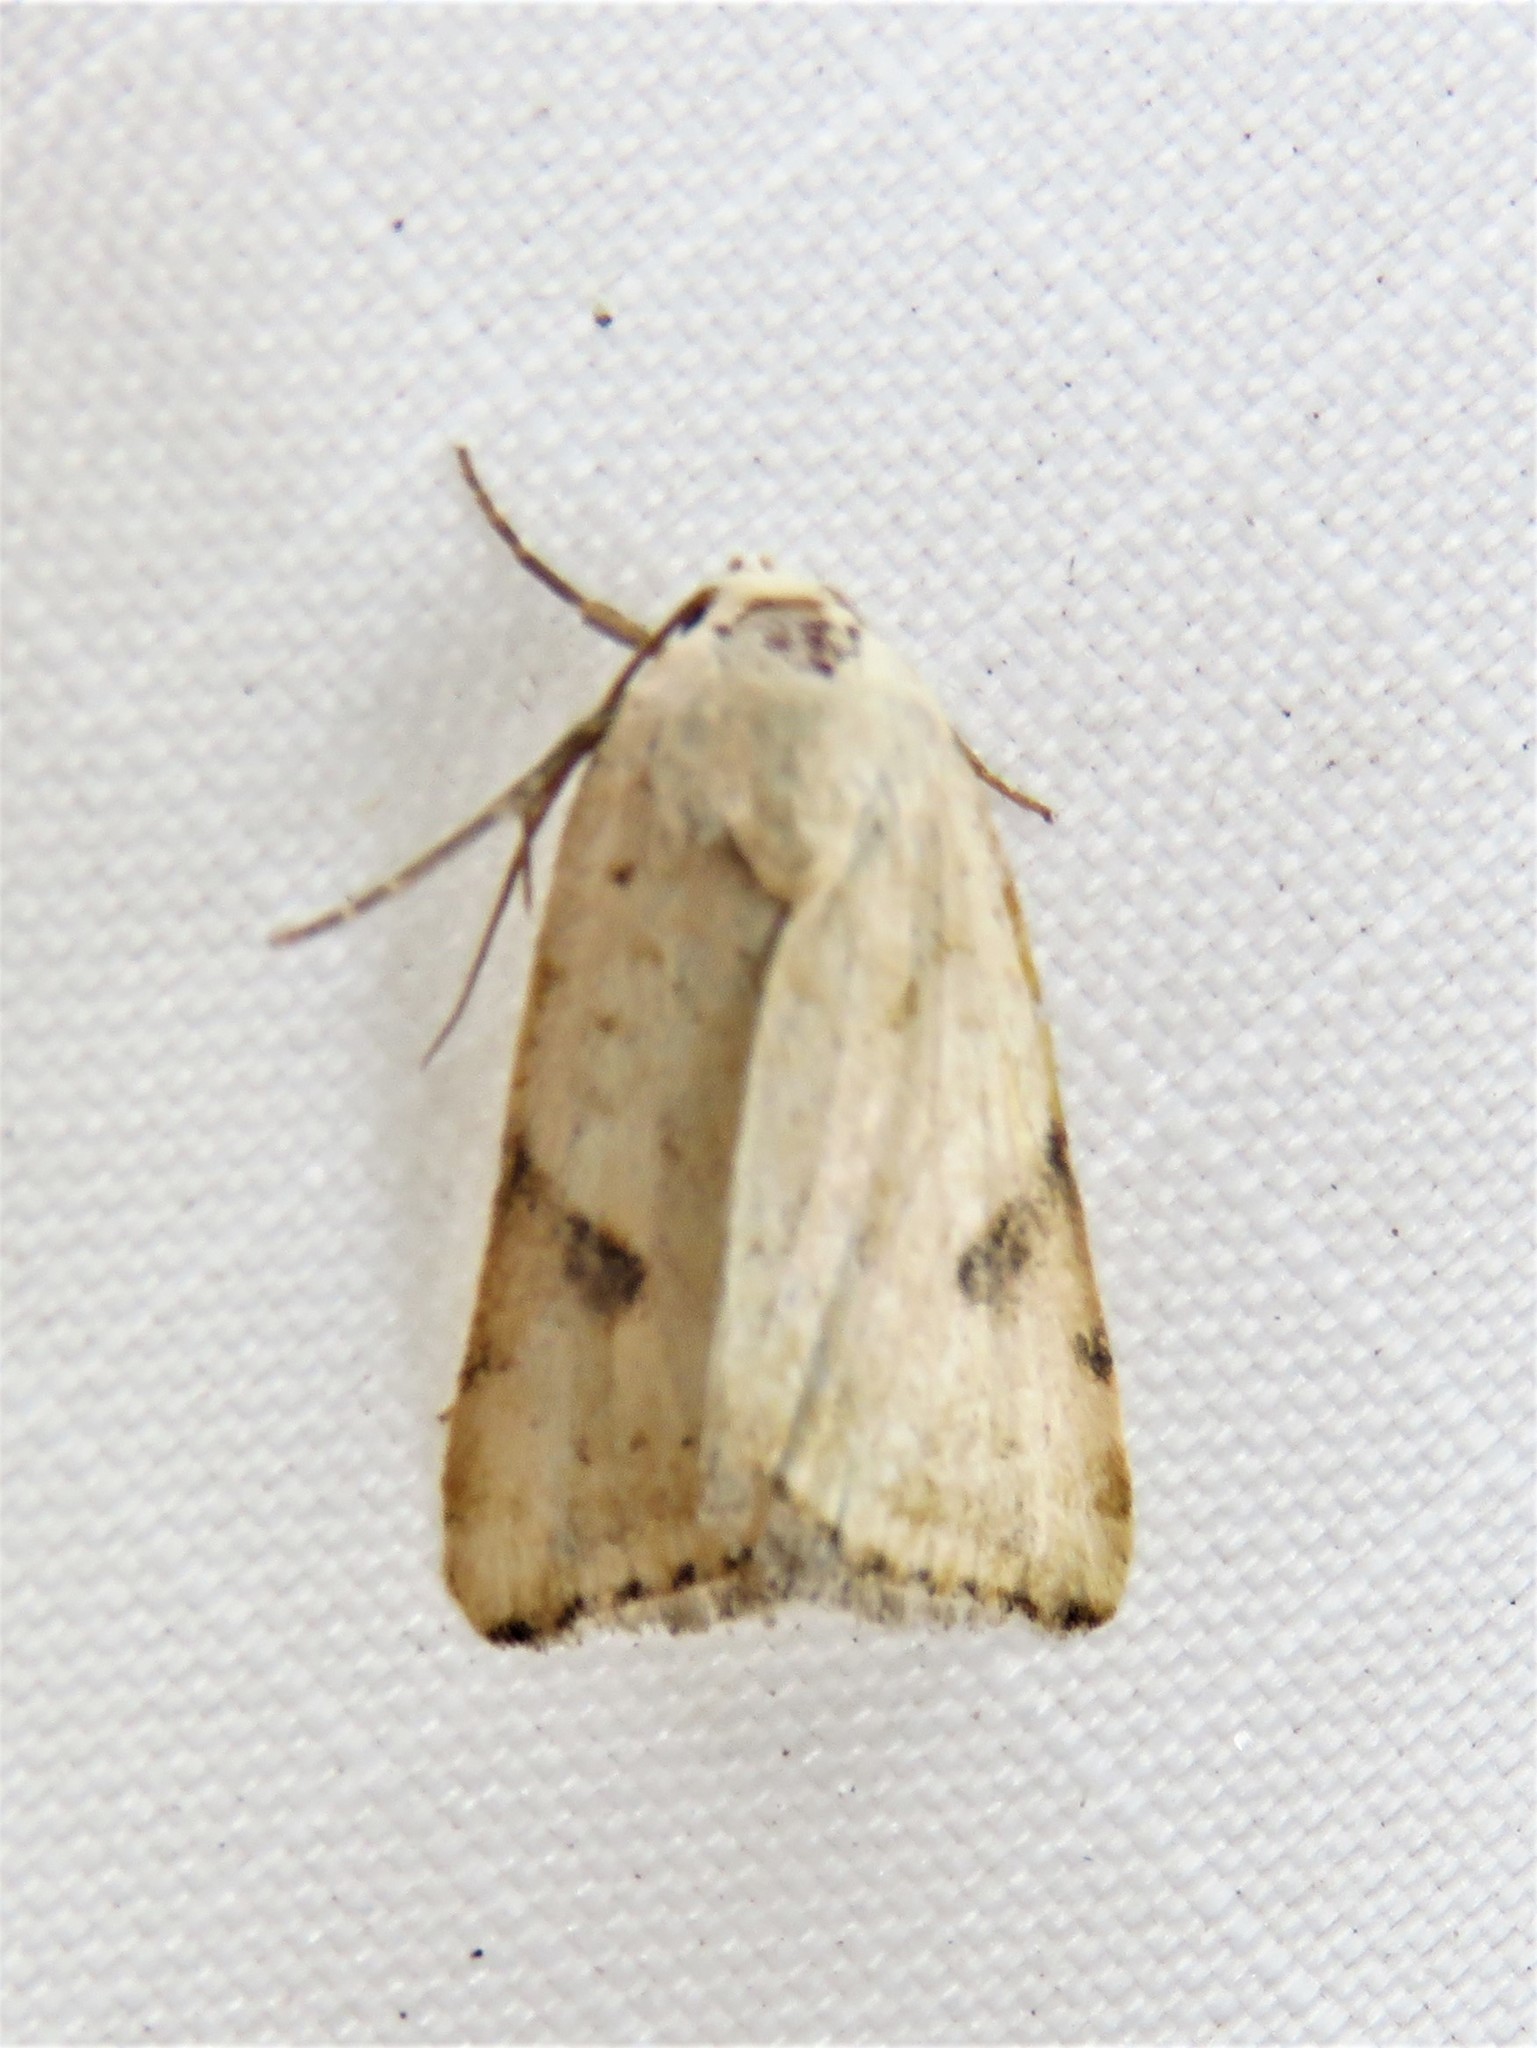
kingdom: Animalia
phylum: Arthropoda
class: Insecta
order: Lepidoptera
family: Noctuidae
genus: Micrathetis
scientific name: Micrathetis costiplaga
